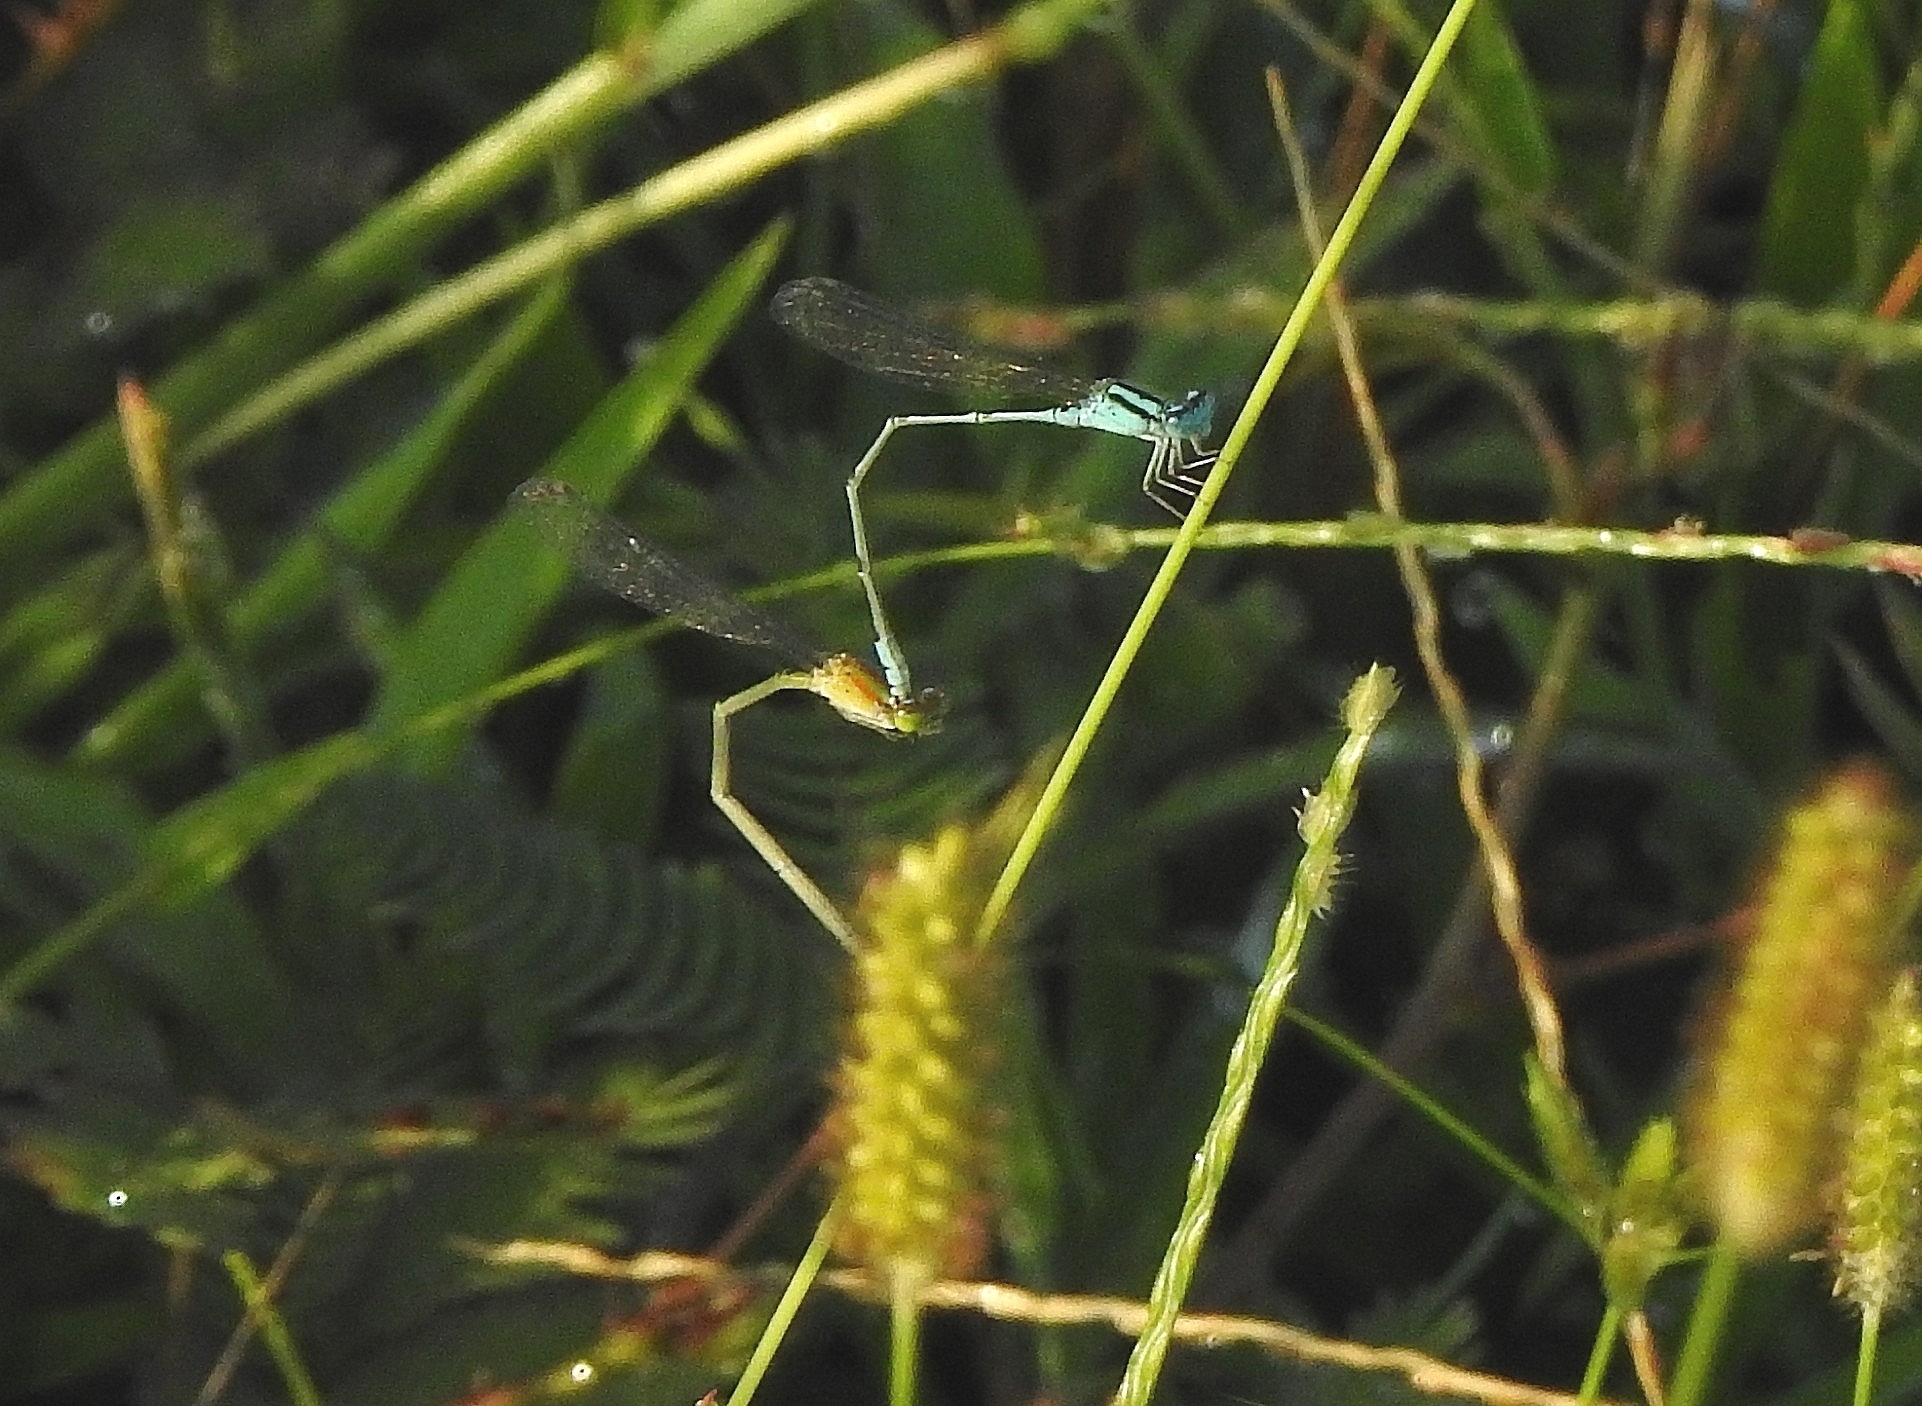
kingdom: Animalia
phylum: Arthropoda
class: Insecta
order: Odonata
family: Coenagrionidae
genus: Pseudagrion
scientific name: Pseudagrion microcephalum
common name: Blue riverdamsel
